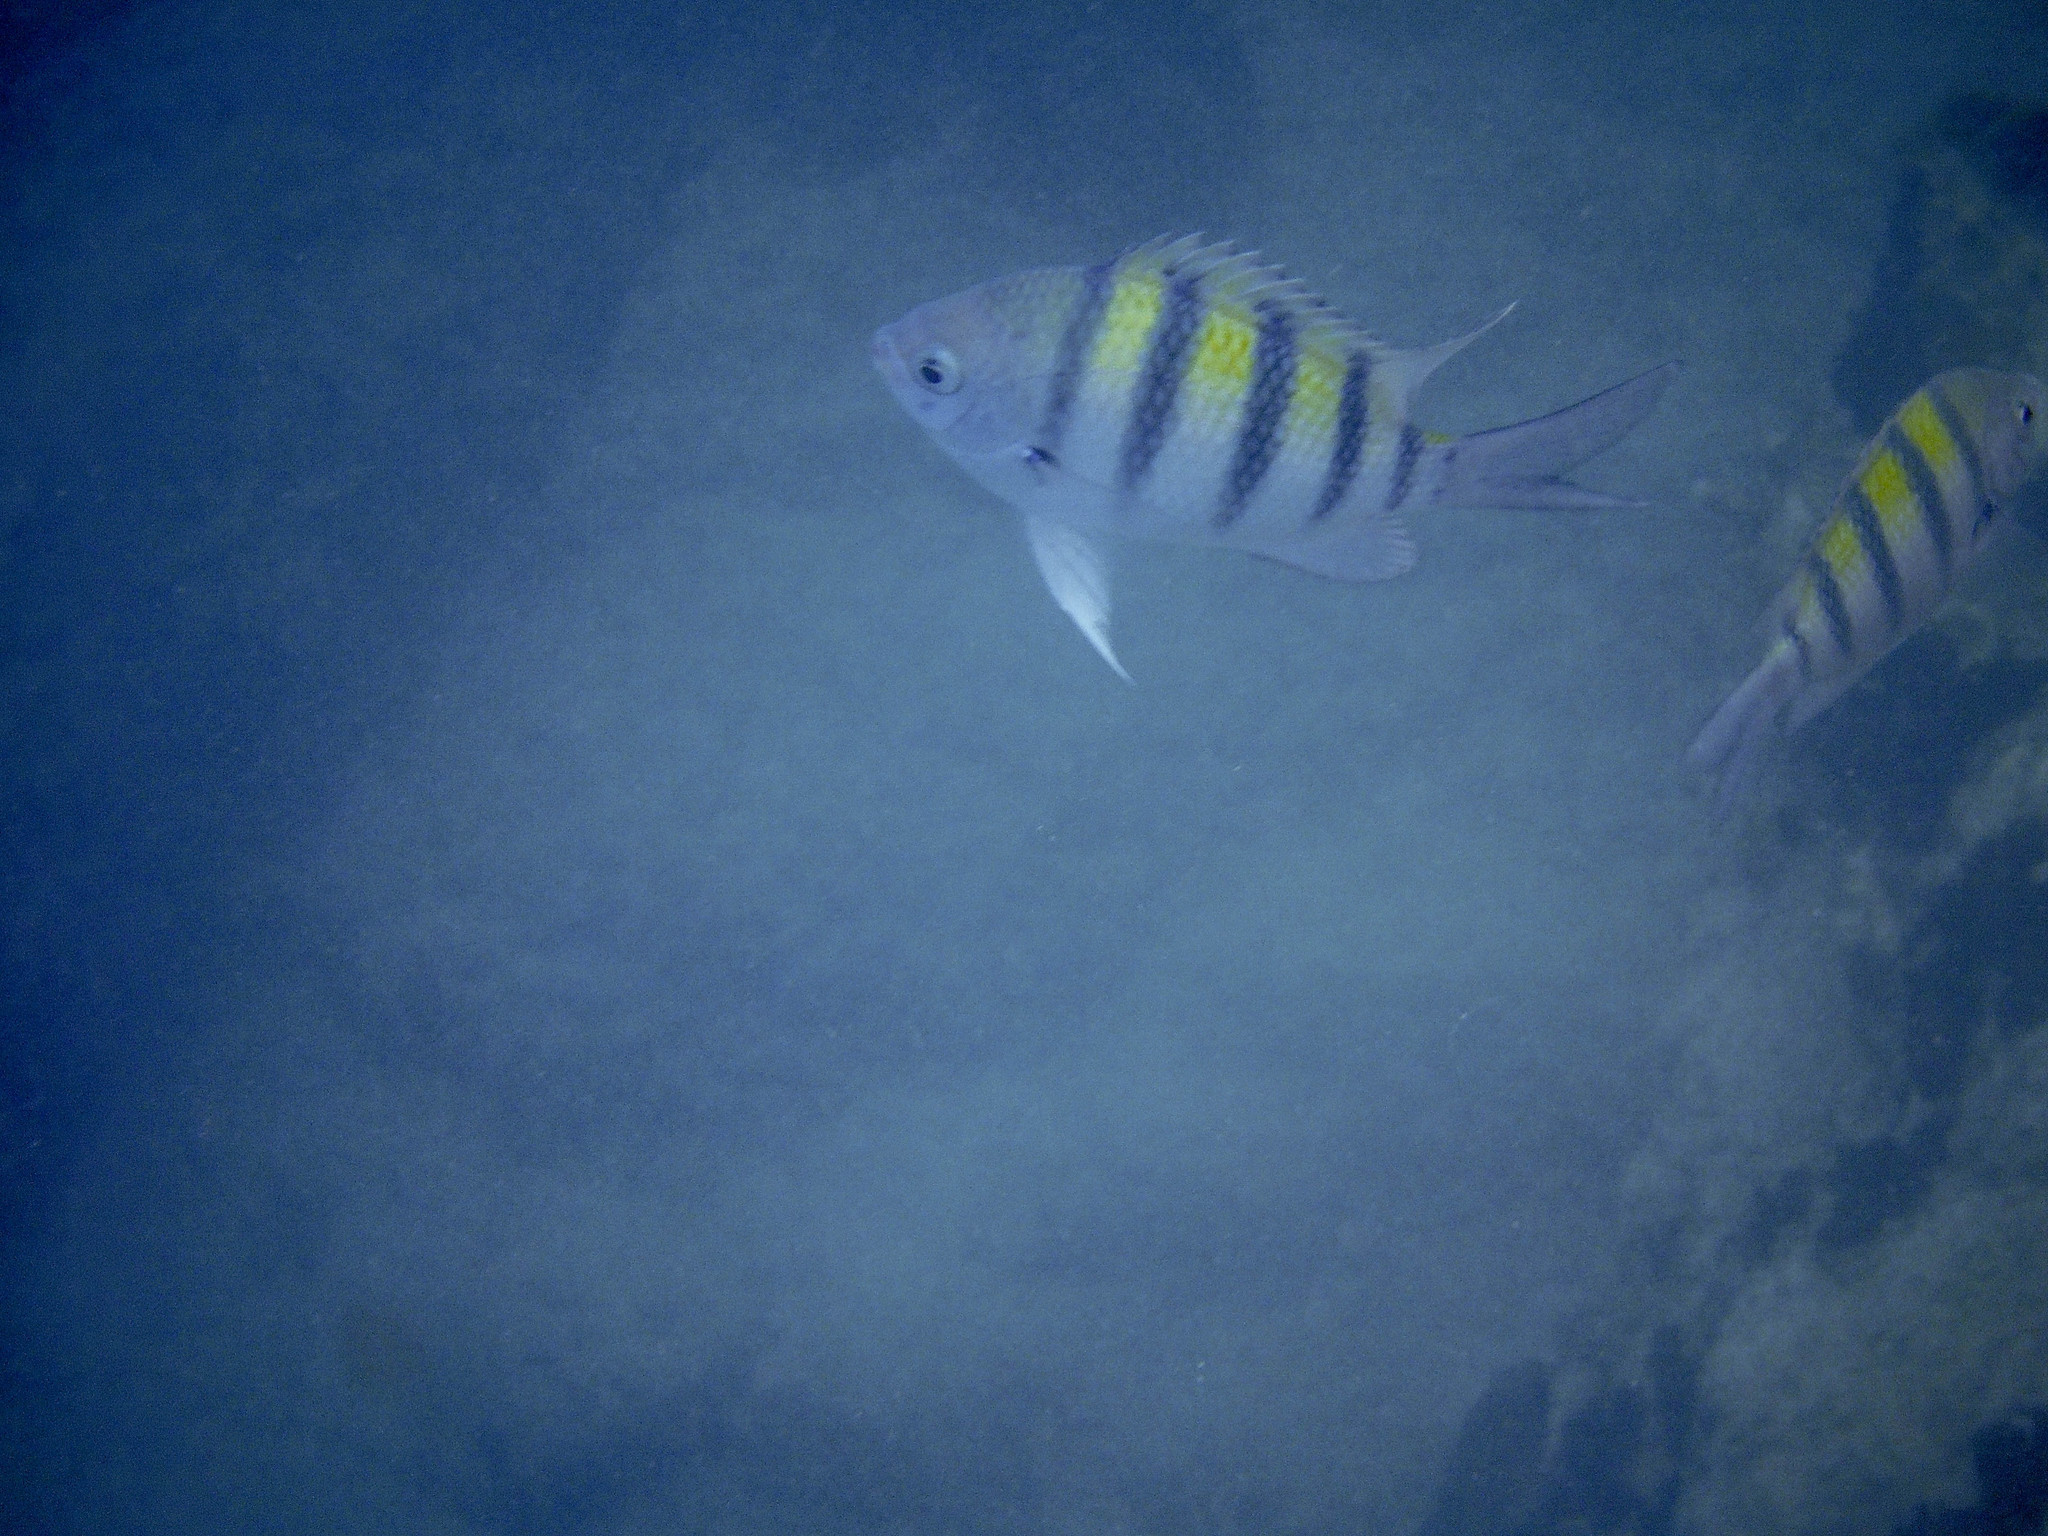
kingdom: Animalia
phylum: Chordata
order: Perciformes
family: Pomacentridae
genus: Abudefduf
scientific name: Abudefduf saxatilis
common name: Sergeant major
